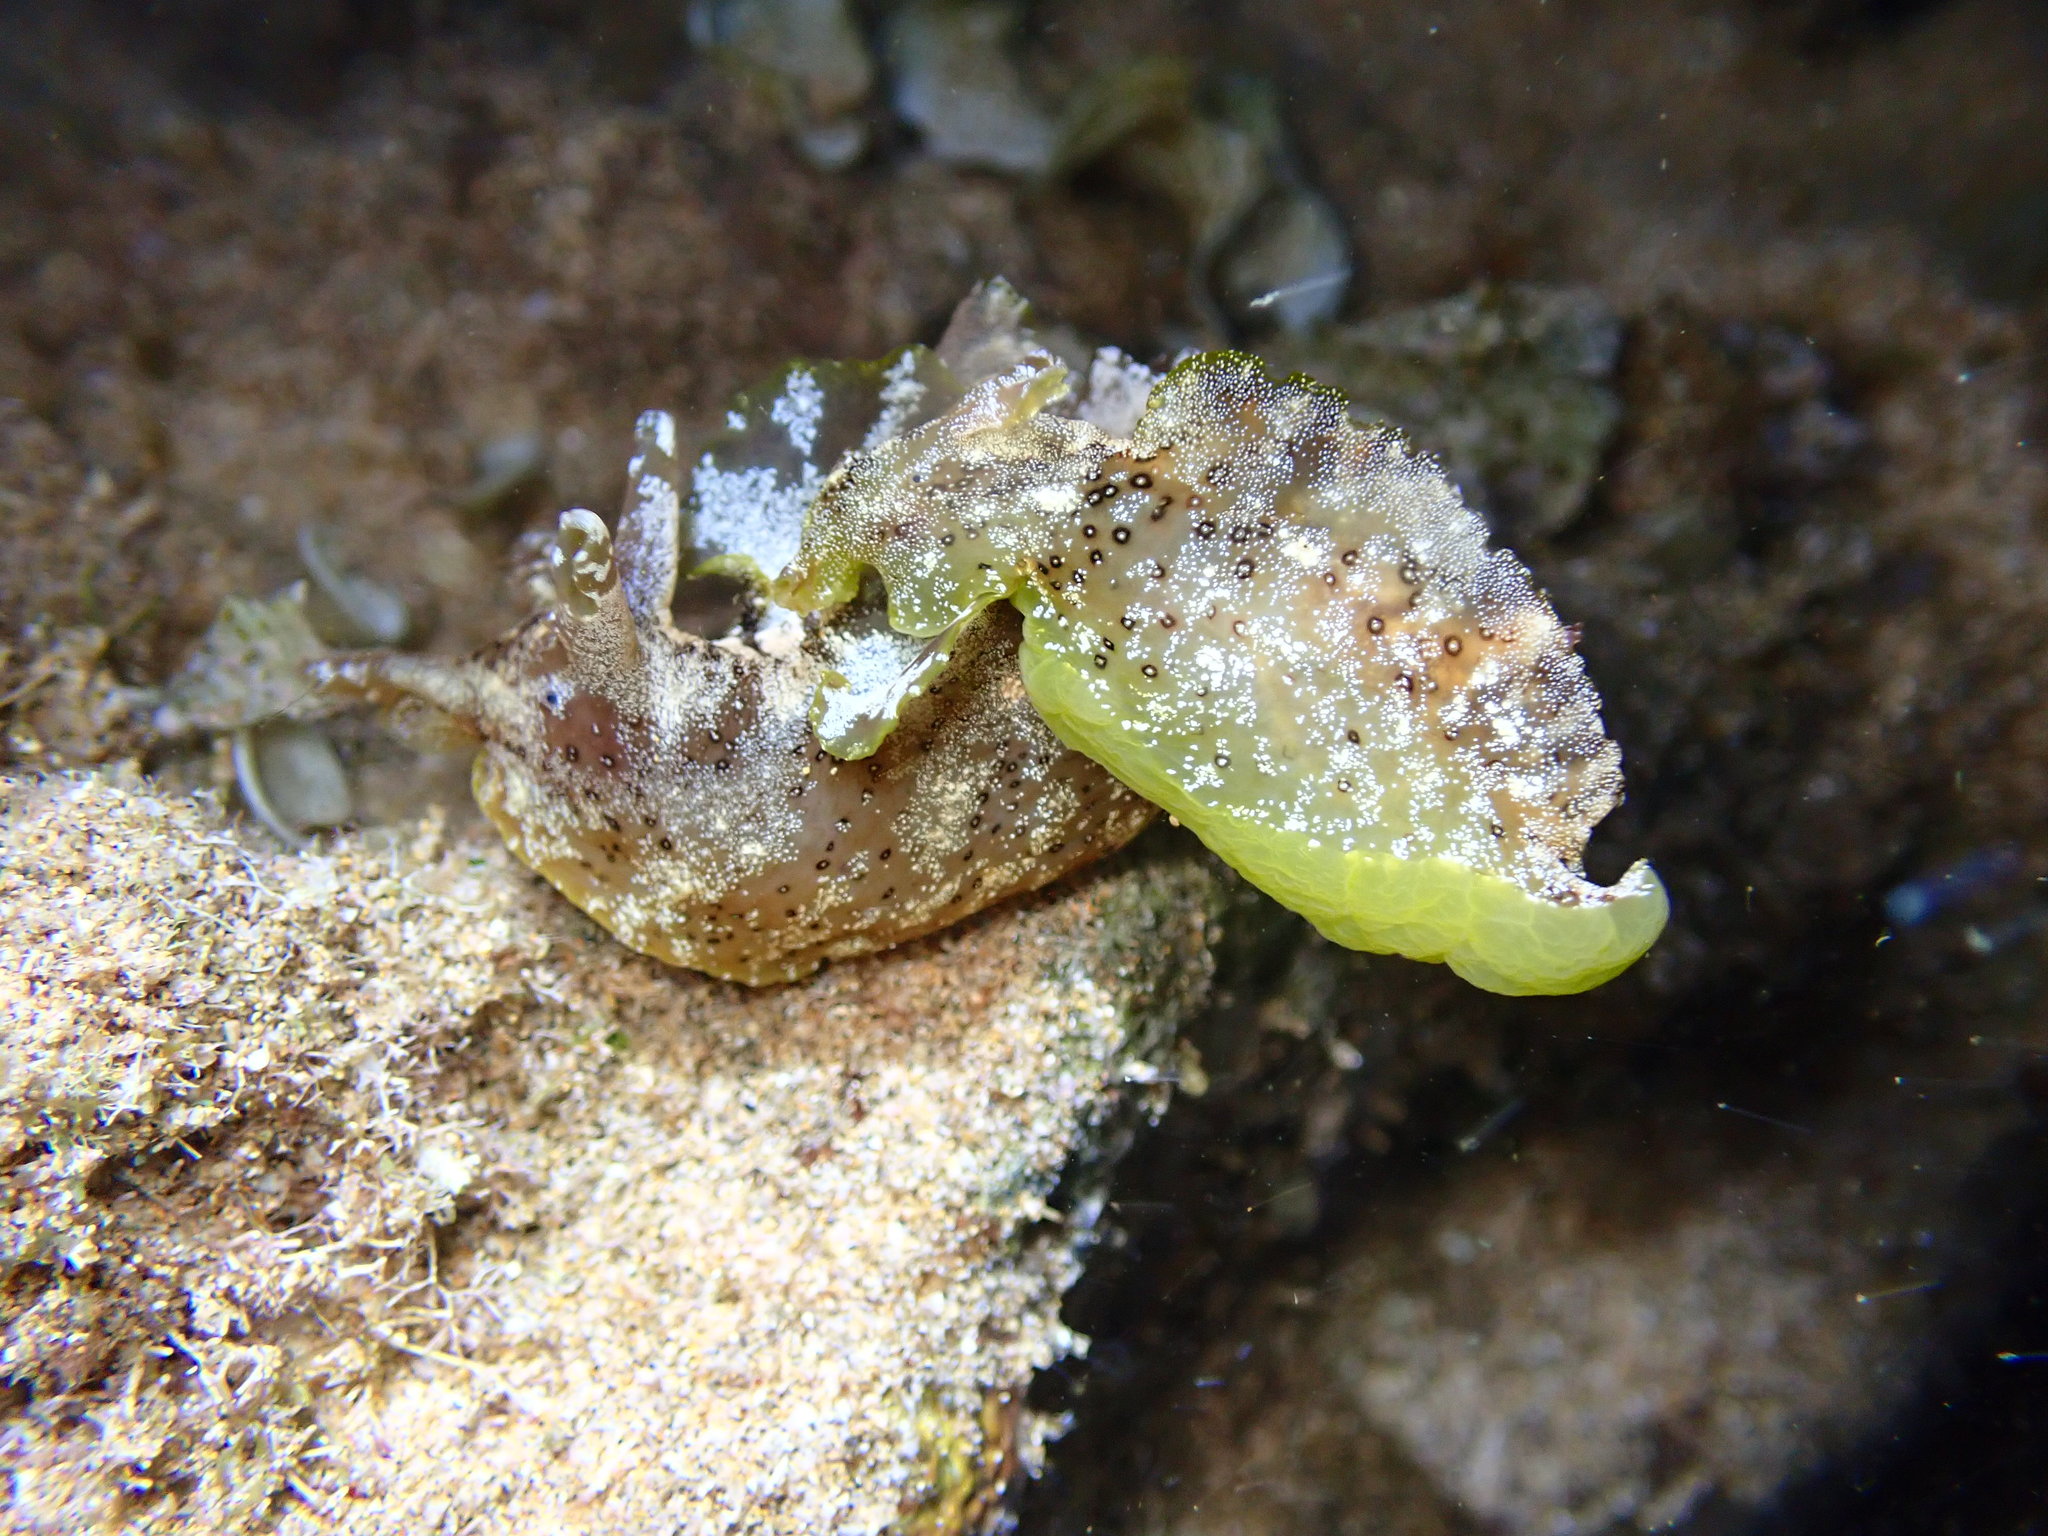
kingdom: Animalia
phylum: Mollusca
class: Gastropoda
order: Aplysiida
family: Aplysiidae
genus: Aplysia
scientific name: Aplysia oculifera
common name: Spotted sea hare
